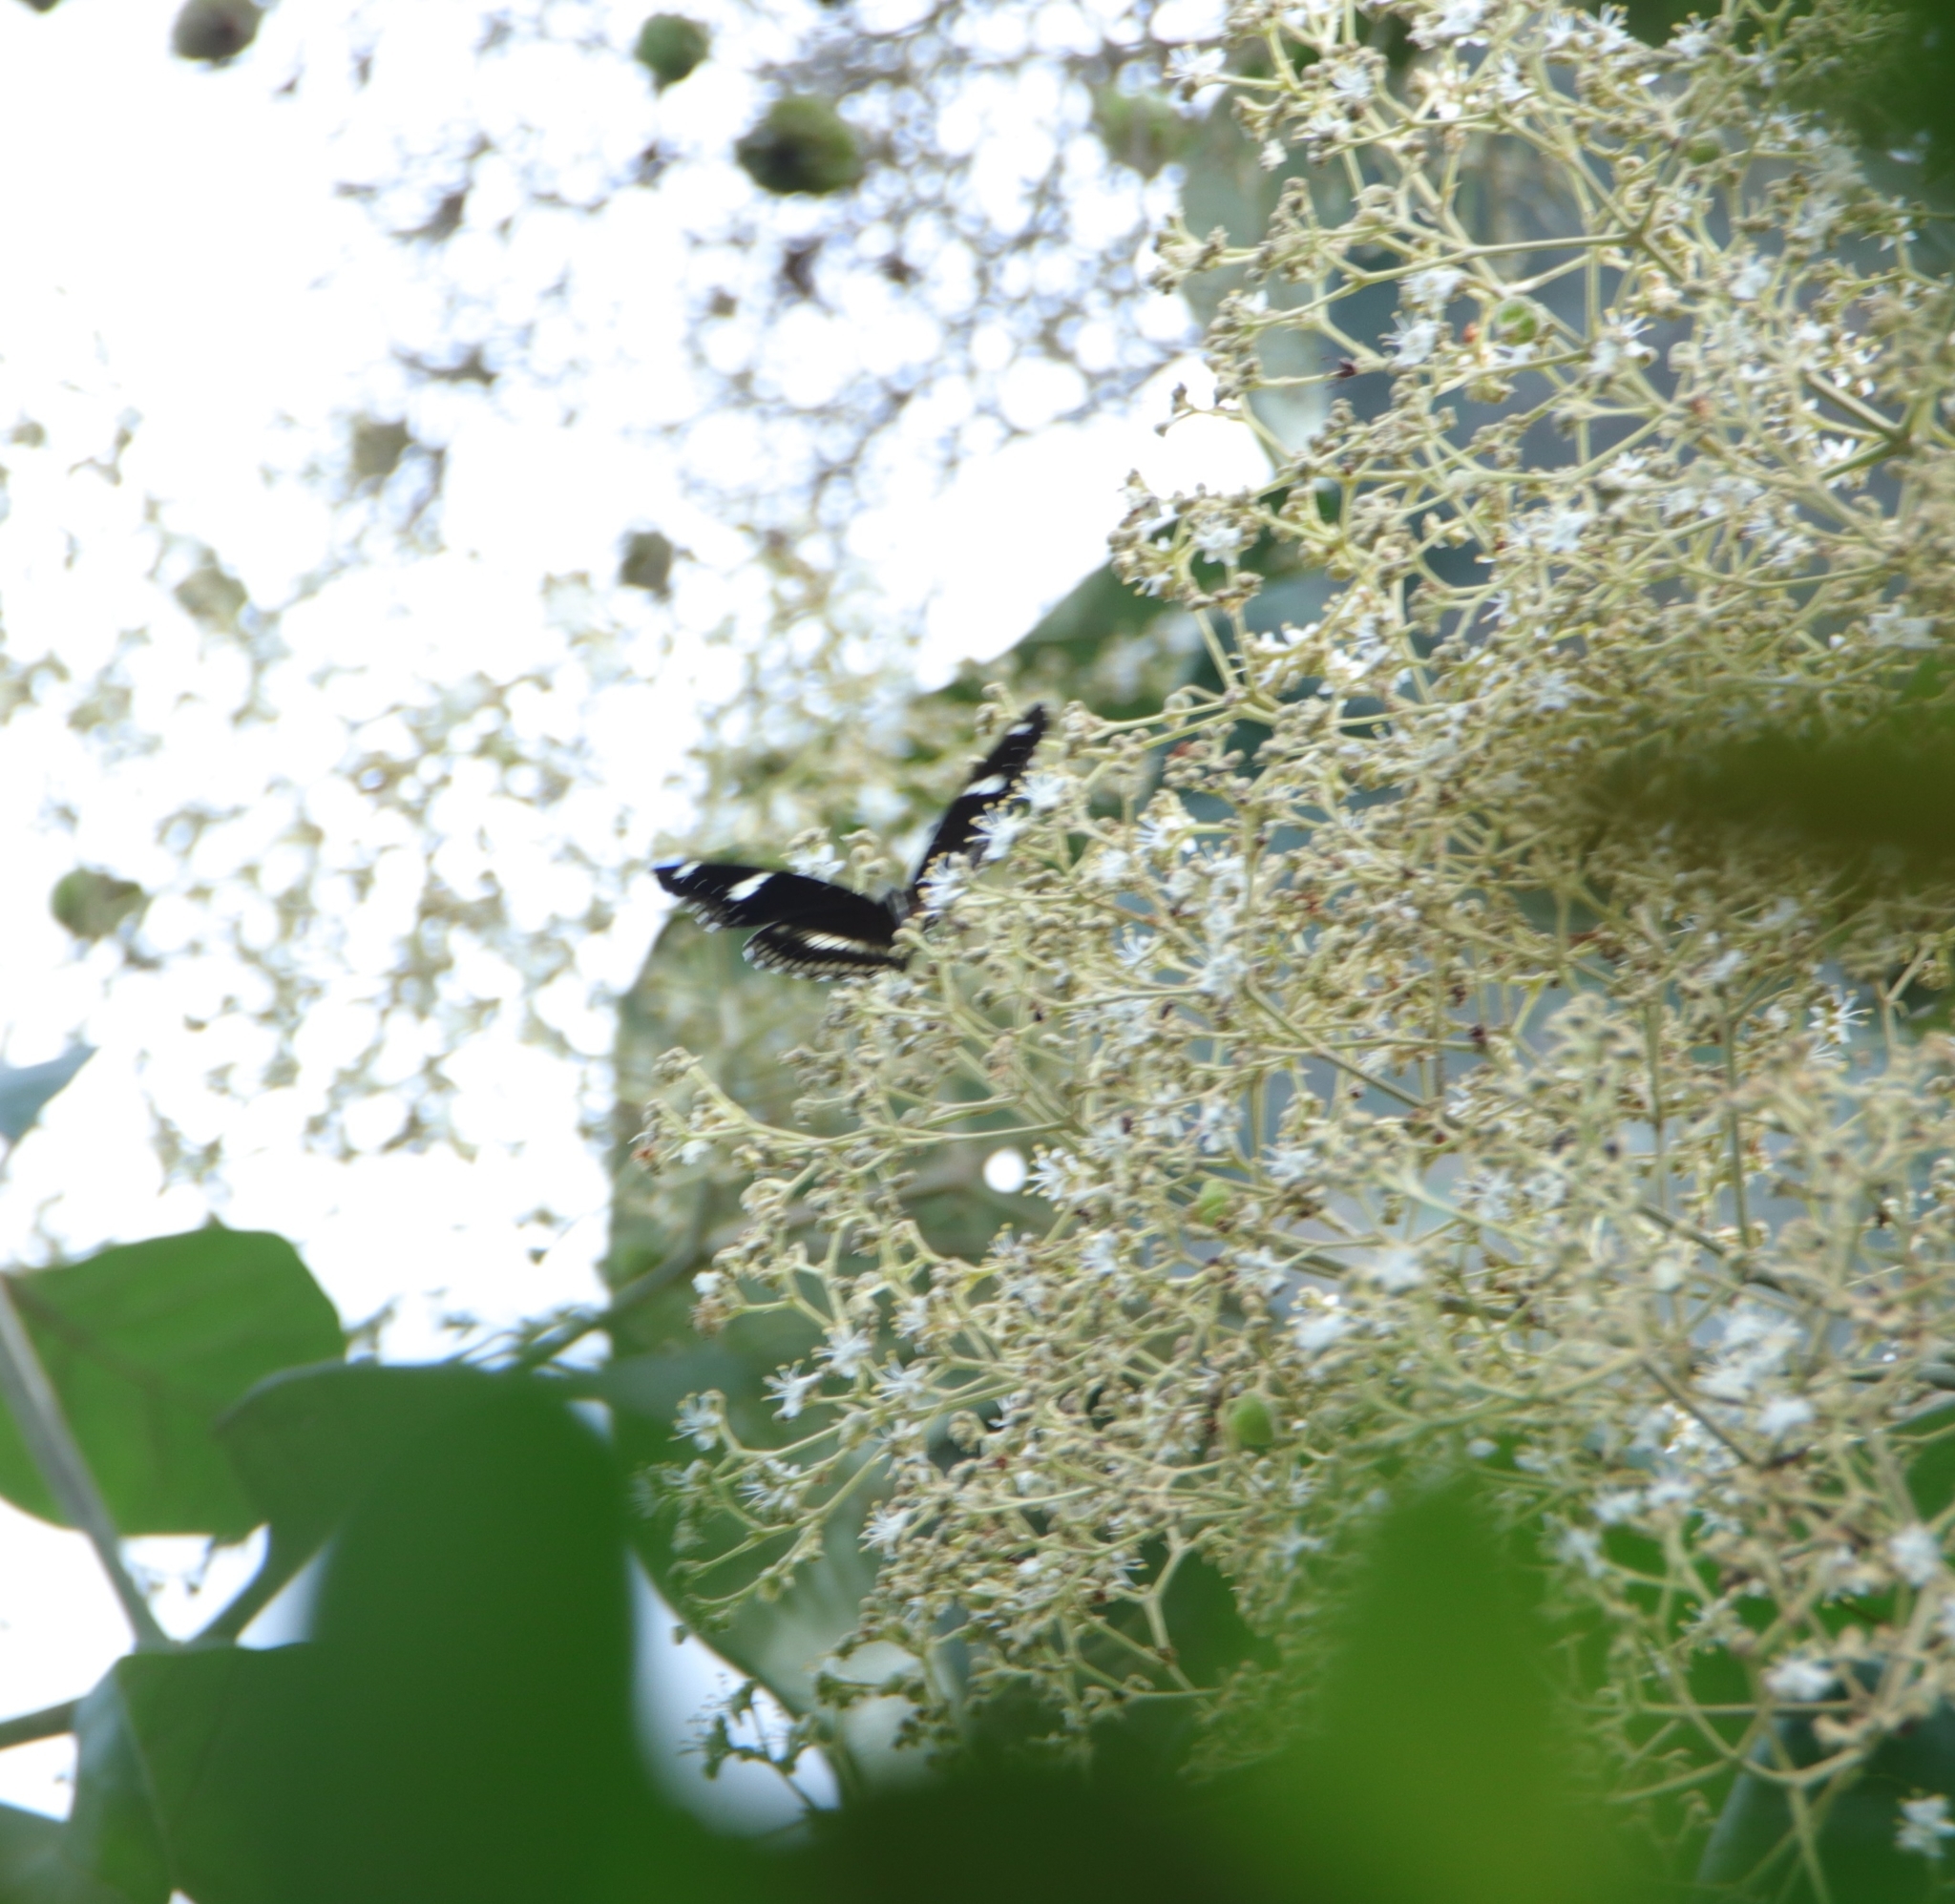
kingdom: Animalia
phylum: Arthropoda
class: Insecta
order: Lepidoptera
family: Nymphalidae
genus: Hypolimnas
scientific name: Hypolimnas bolina
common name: Great eggfly
